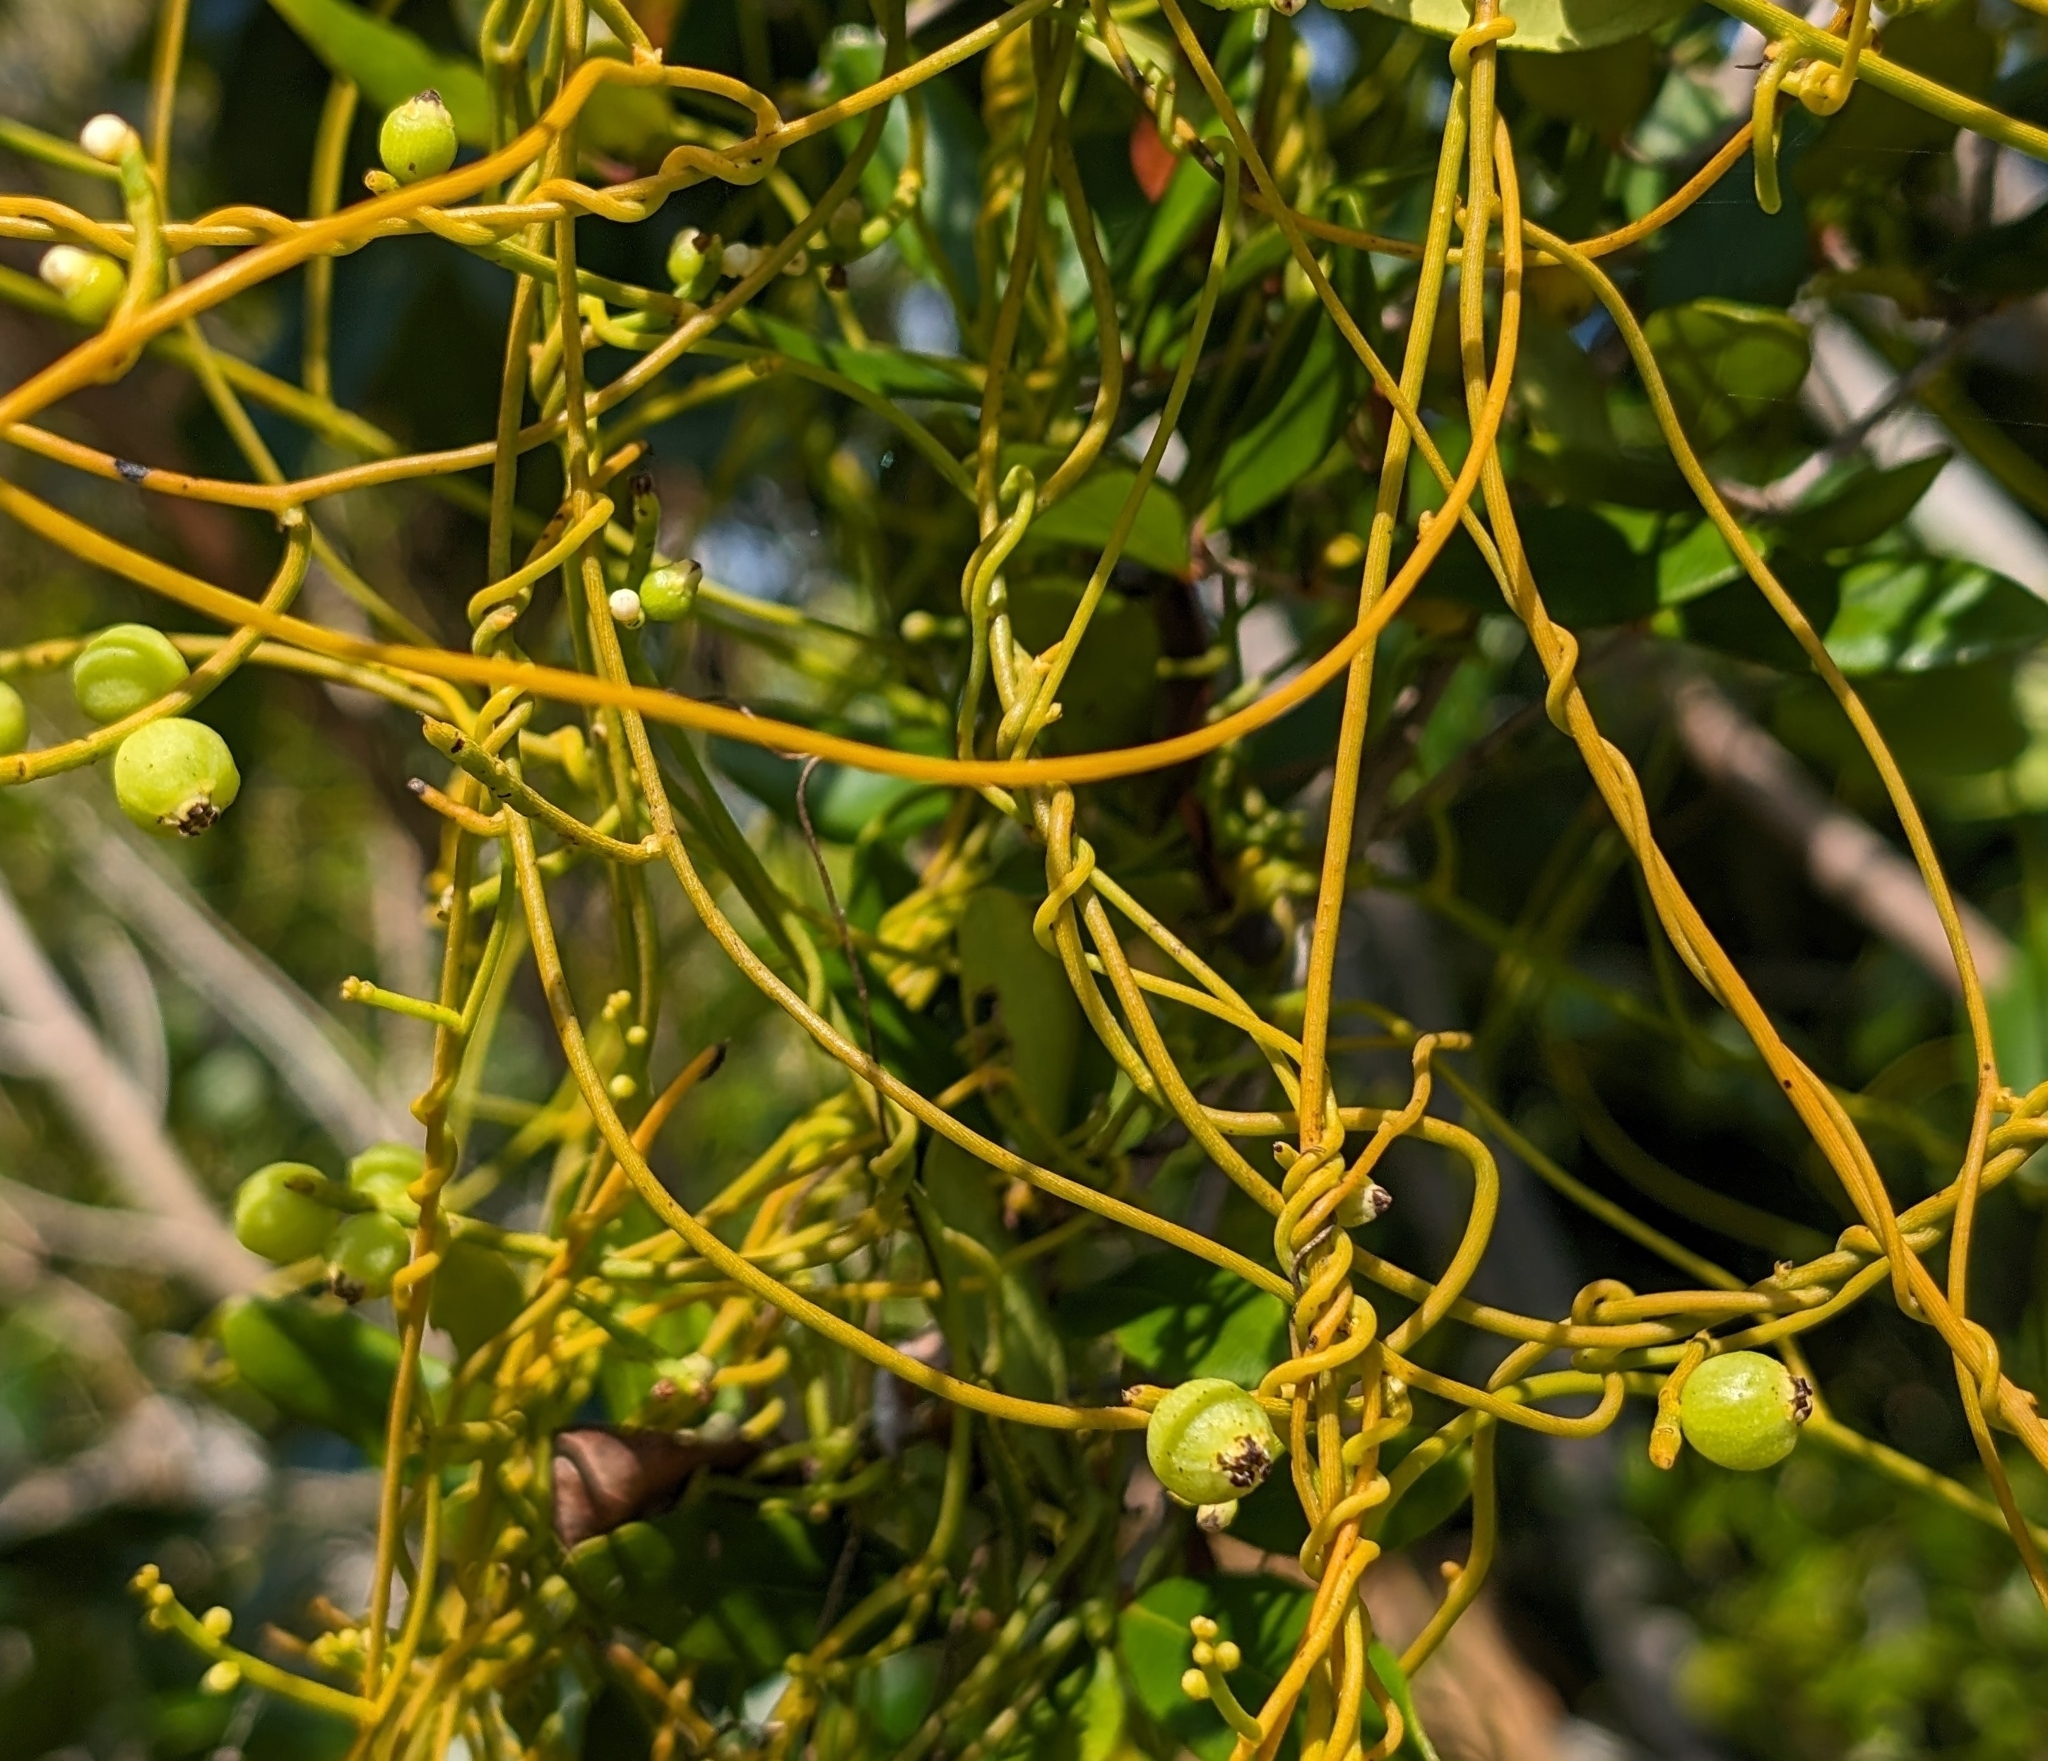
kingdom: Plantae
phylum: Tracheophyta
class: Magnoliopsida
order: Laurales
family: Lauraceae
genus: Cassytha
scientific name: Cassytha filiformis
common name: Dodder-laurel
